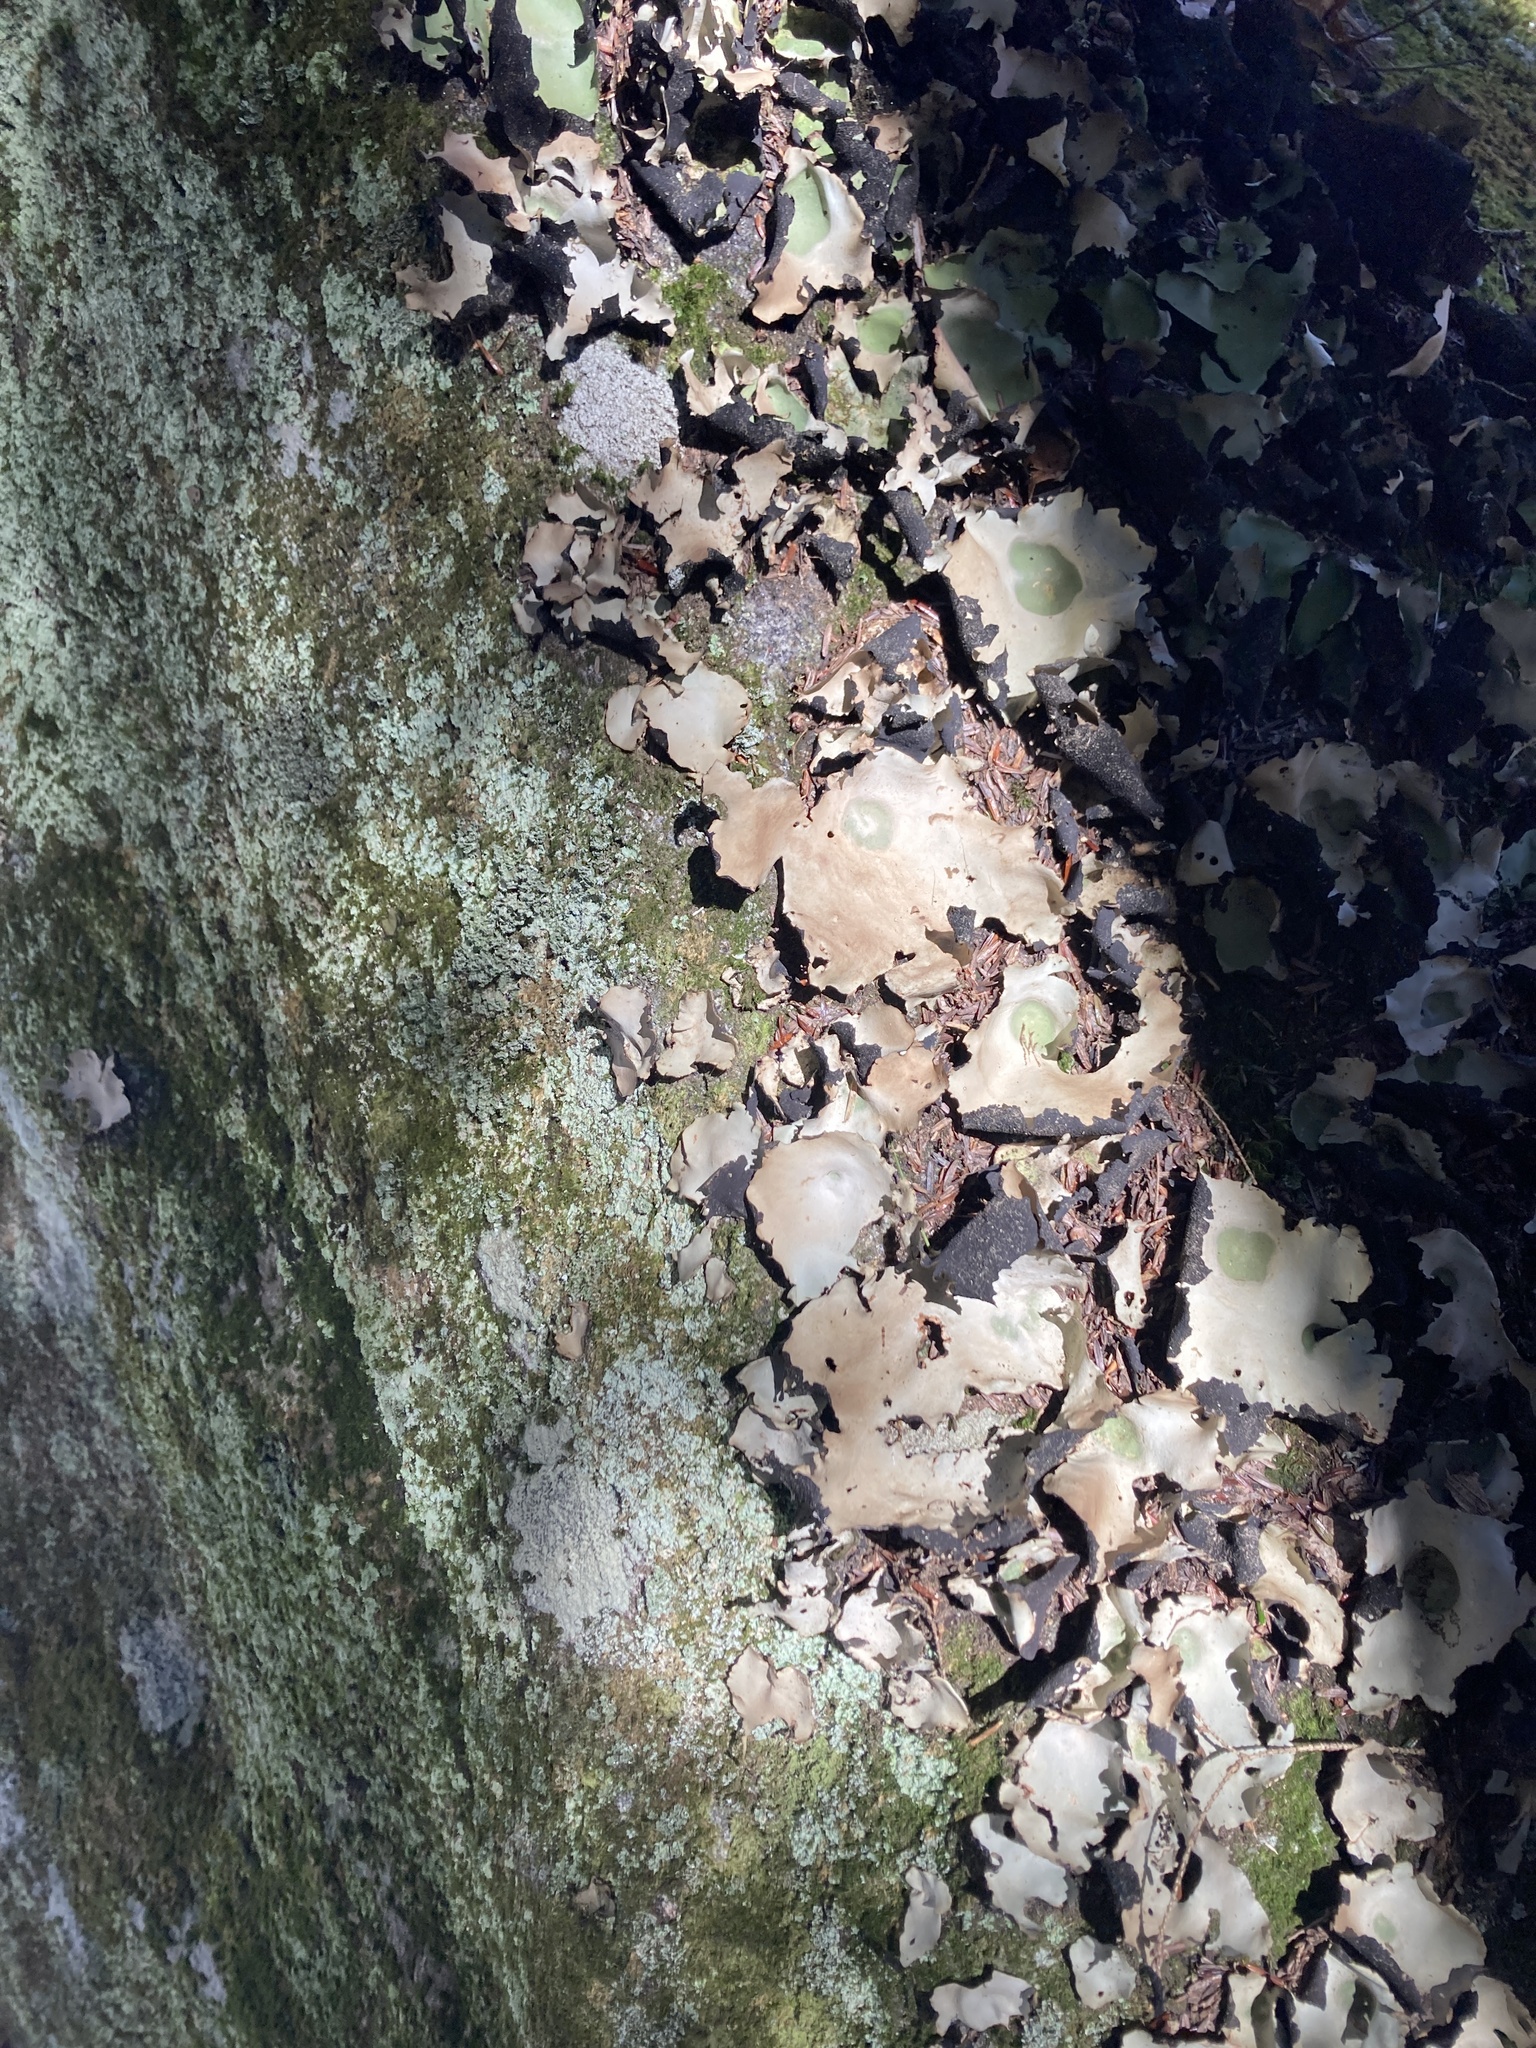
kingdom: Fungi
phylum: Ascomycota
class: Lecanoromycetes
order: Umbilicariales
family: Umbilicariaceae
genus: Umbilicaria
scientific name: Umbilicaria mammulata
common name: Smooth rock tripe
